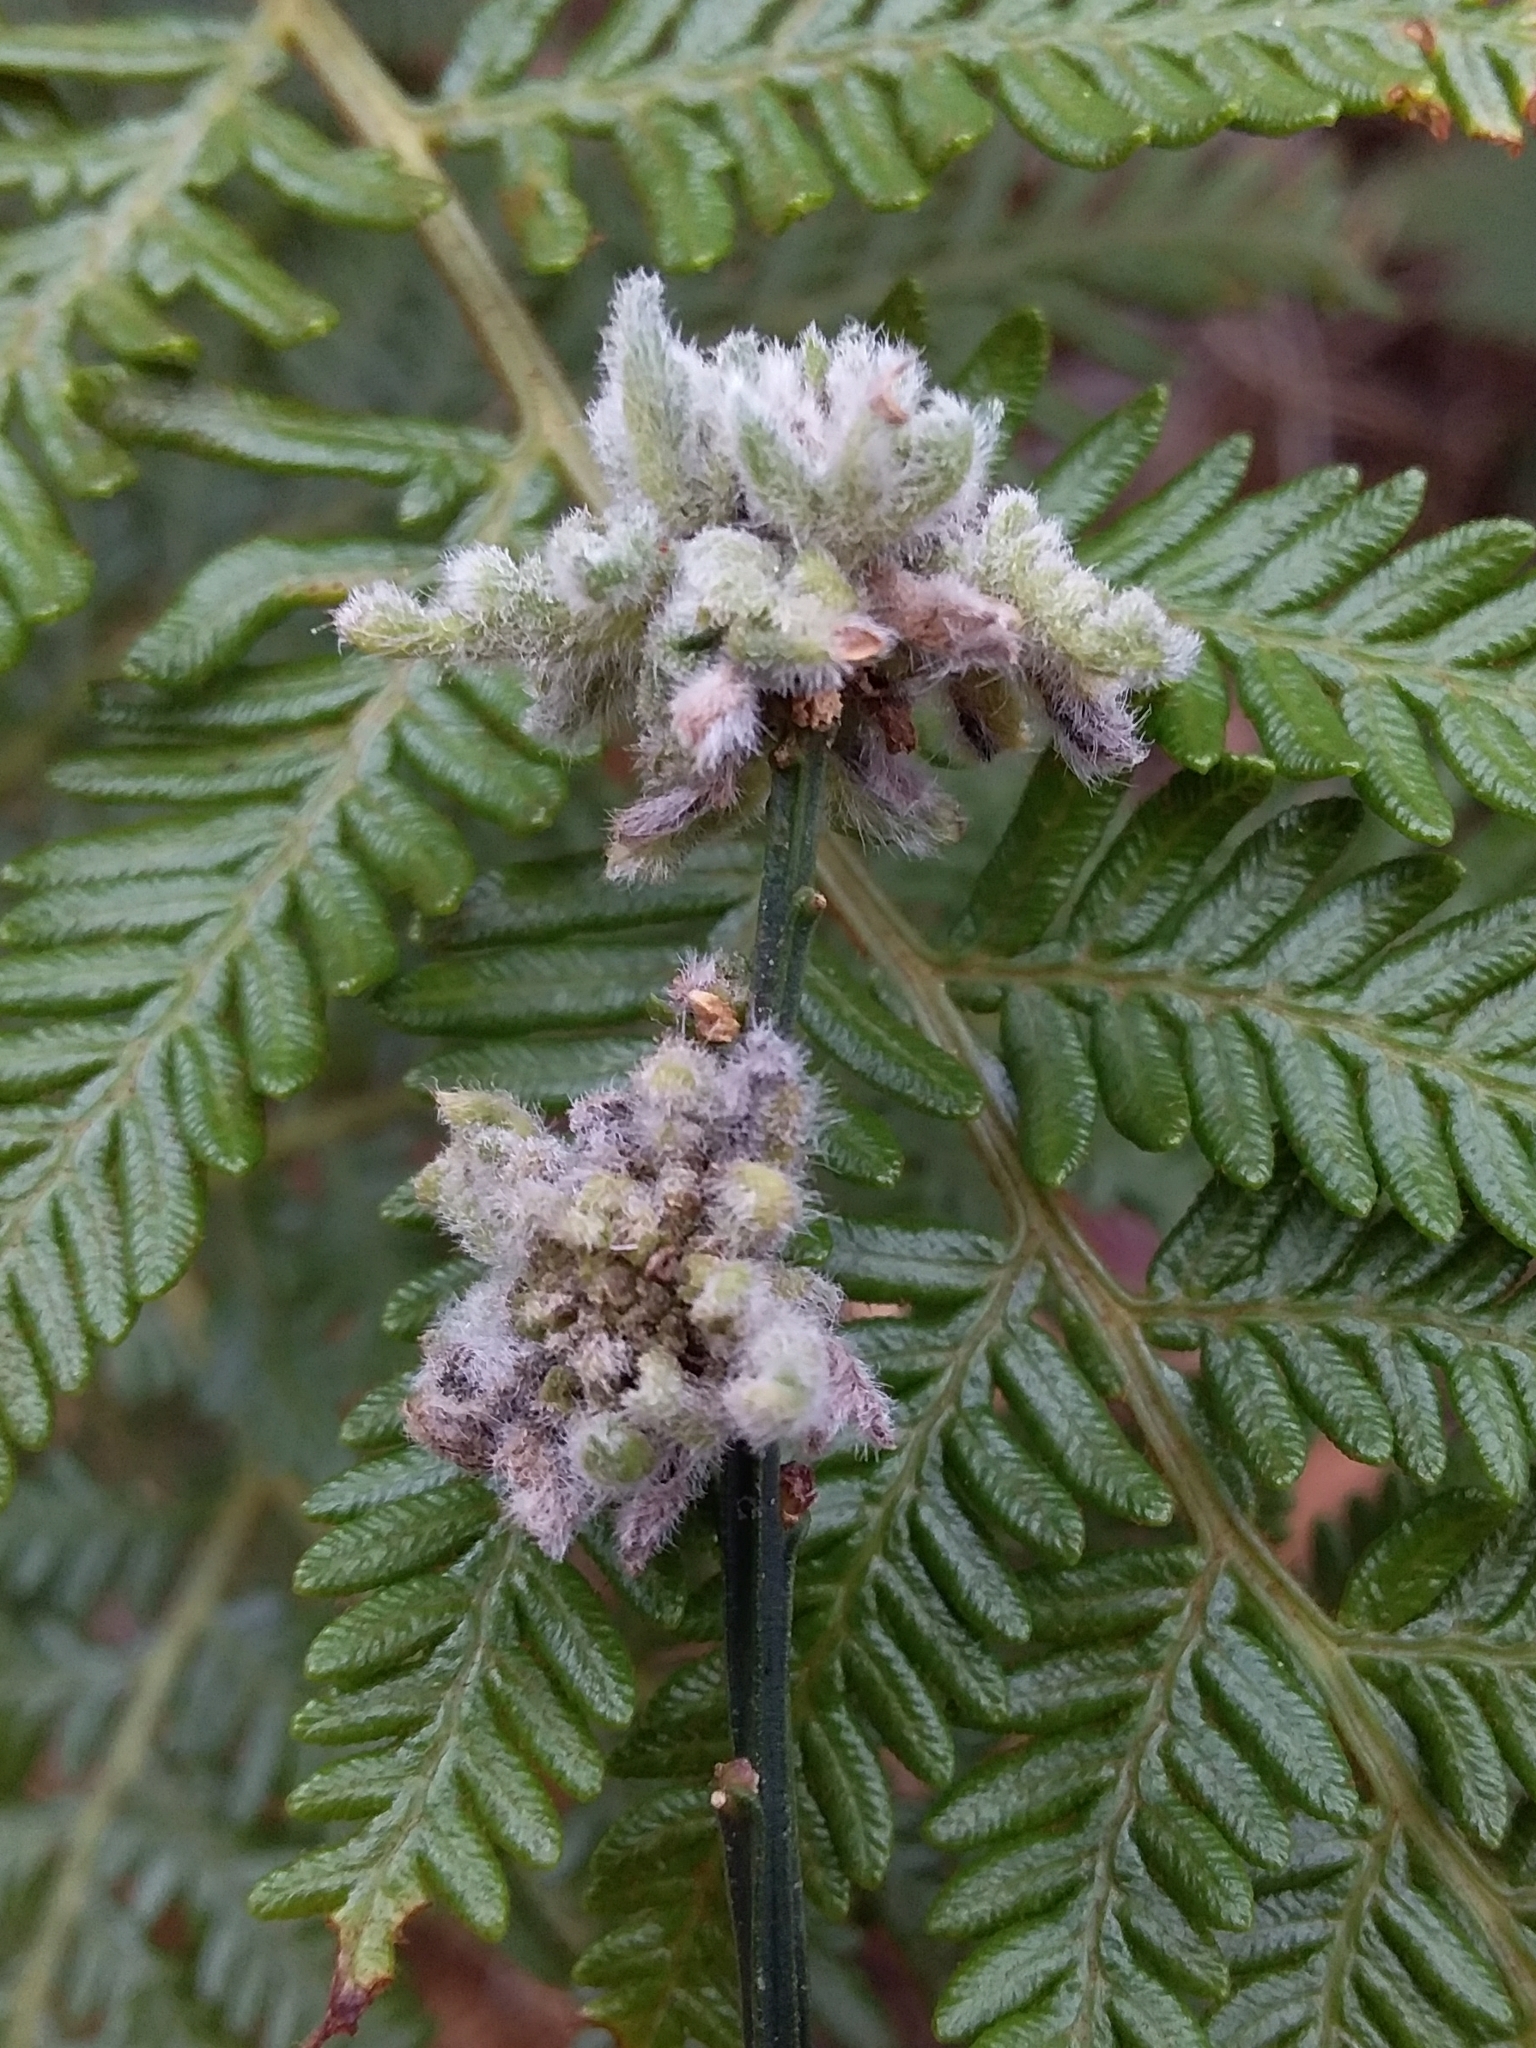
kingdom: Animalia
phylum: Arthropoda
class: Arachnida
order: Trombidiformes
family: Eriophyidae
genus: Aceria
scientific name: Aceria genistae
